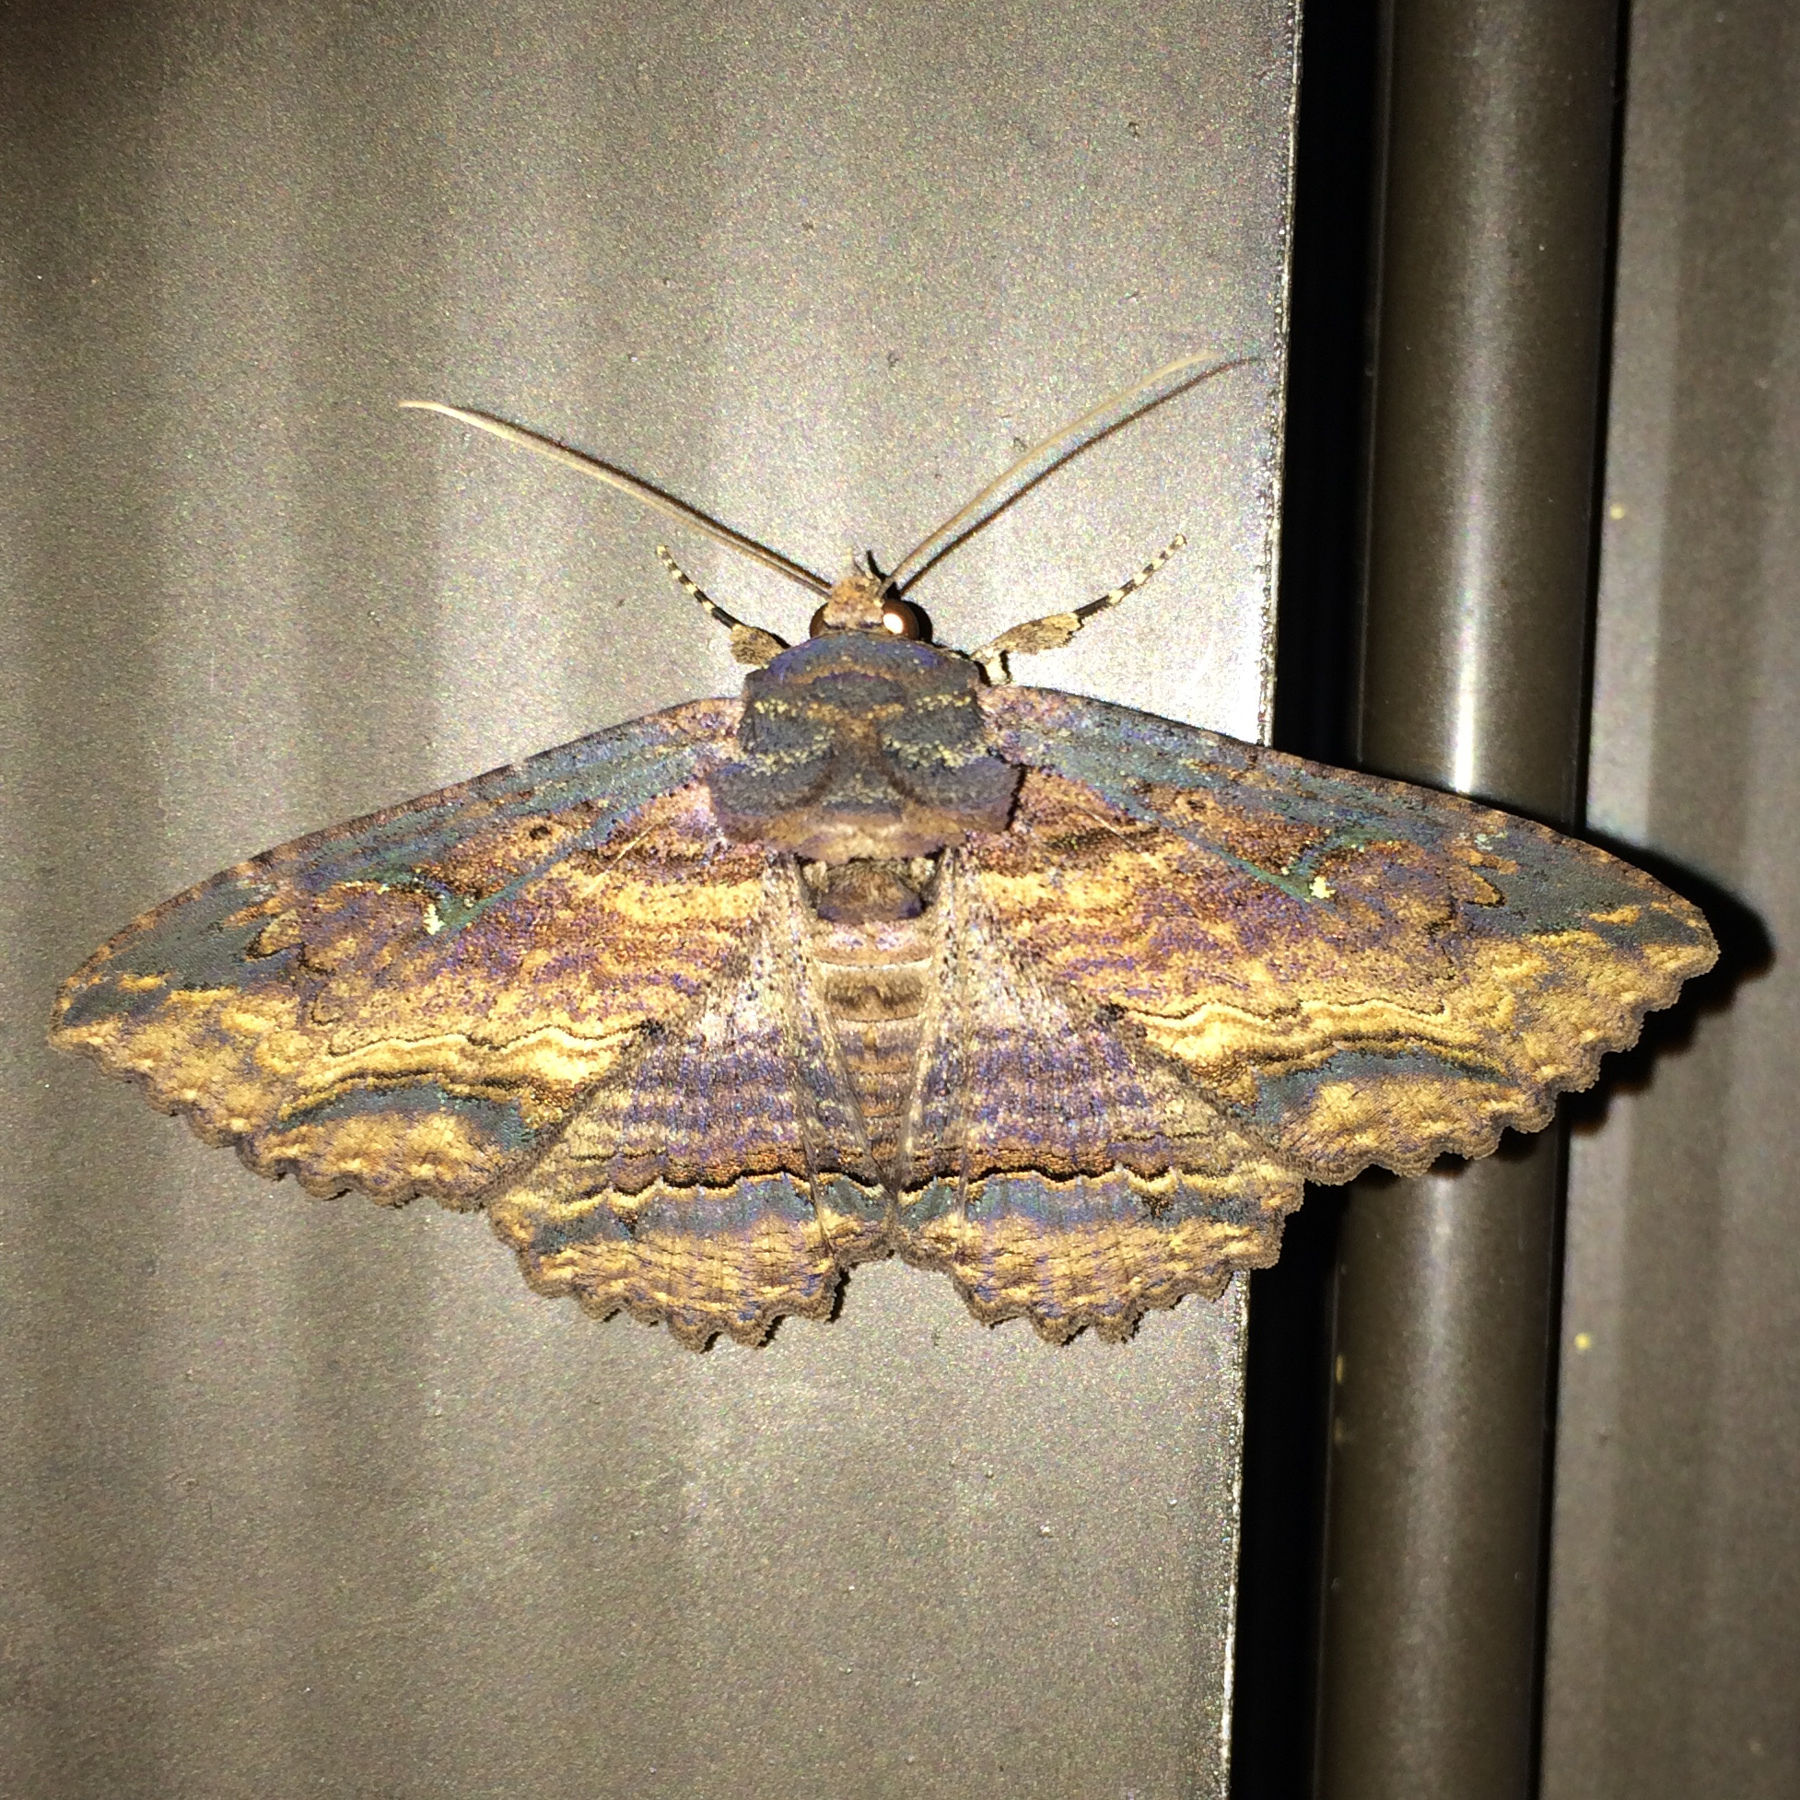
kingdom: Animalia
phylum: Arthropoda
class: Insecta
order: Lepidoptera
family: Erebidae
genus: Zale
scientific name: Zale lunata
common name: Lunate zale moth
